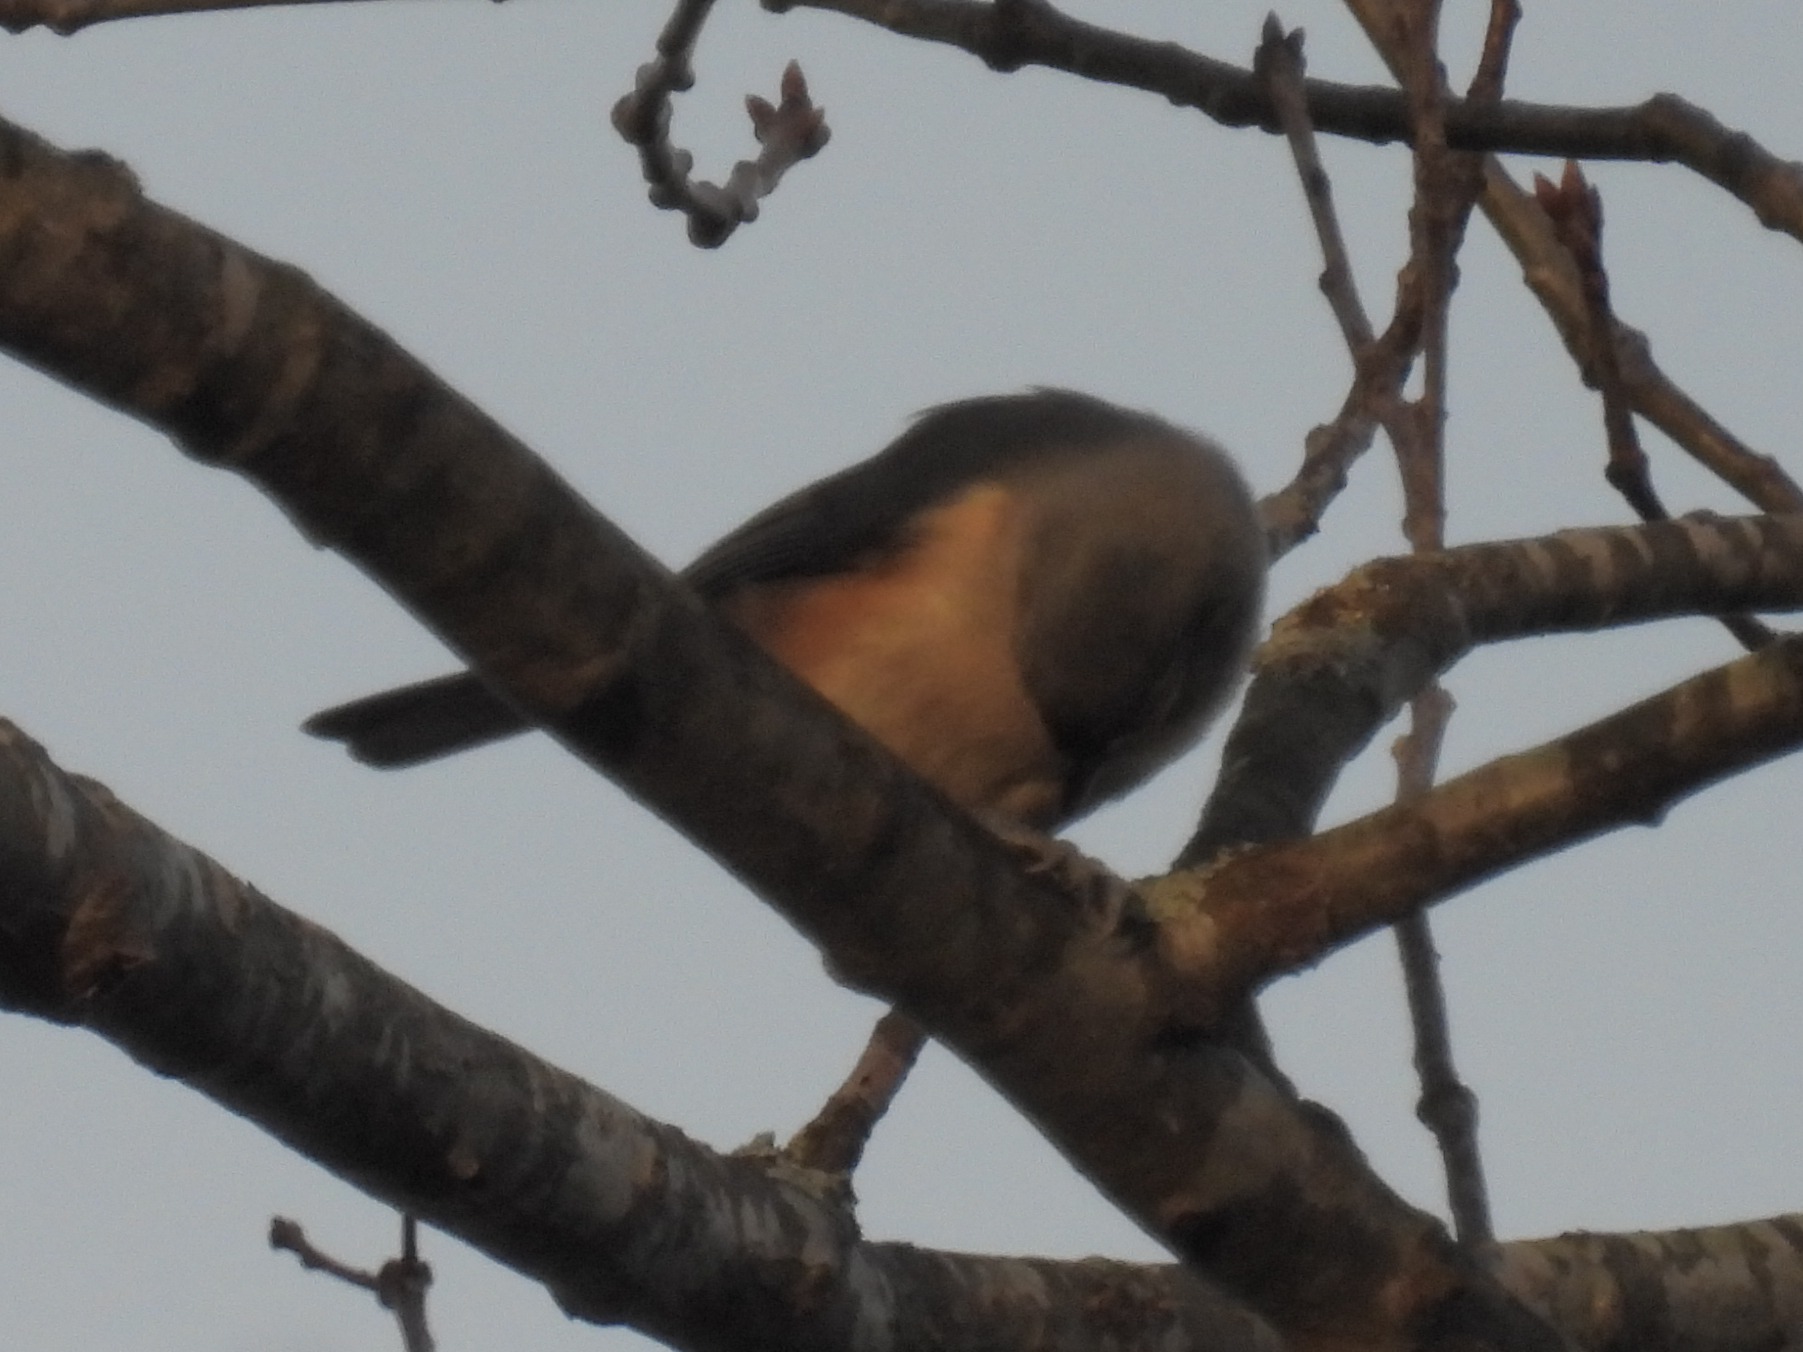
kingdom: Animalia
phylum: Chordata
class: Aves
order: Passeriformes
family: Paridae
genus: Baeolophus
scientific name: Baeolophus bicolor
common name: Tufted titmouse
